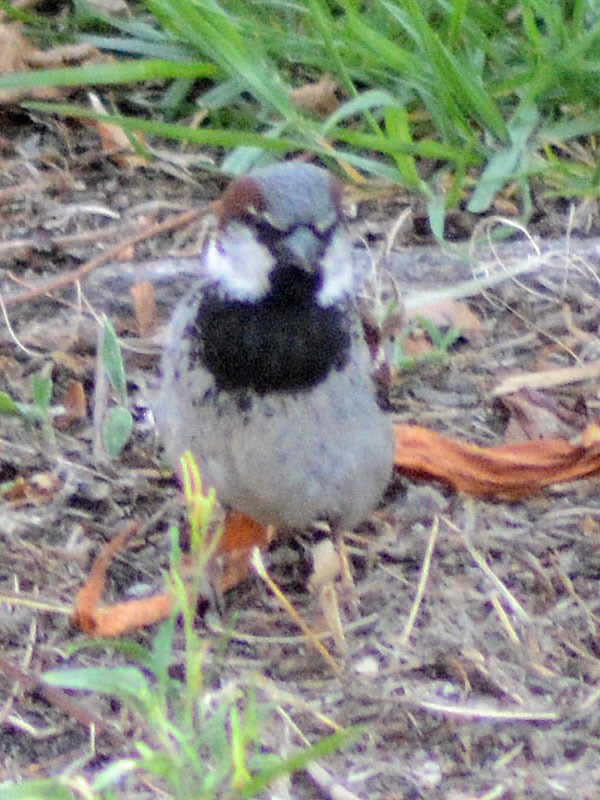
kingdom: Animalia
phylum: Chordata
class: Aves
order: Passeriformes
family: Passeridae
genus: Passer
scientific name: Passer domesticus
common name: House sparrow
